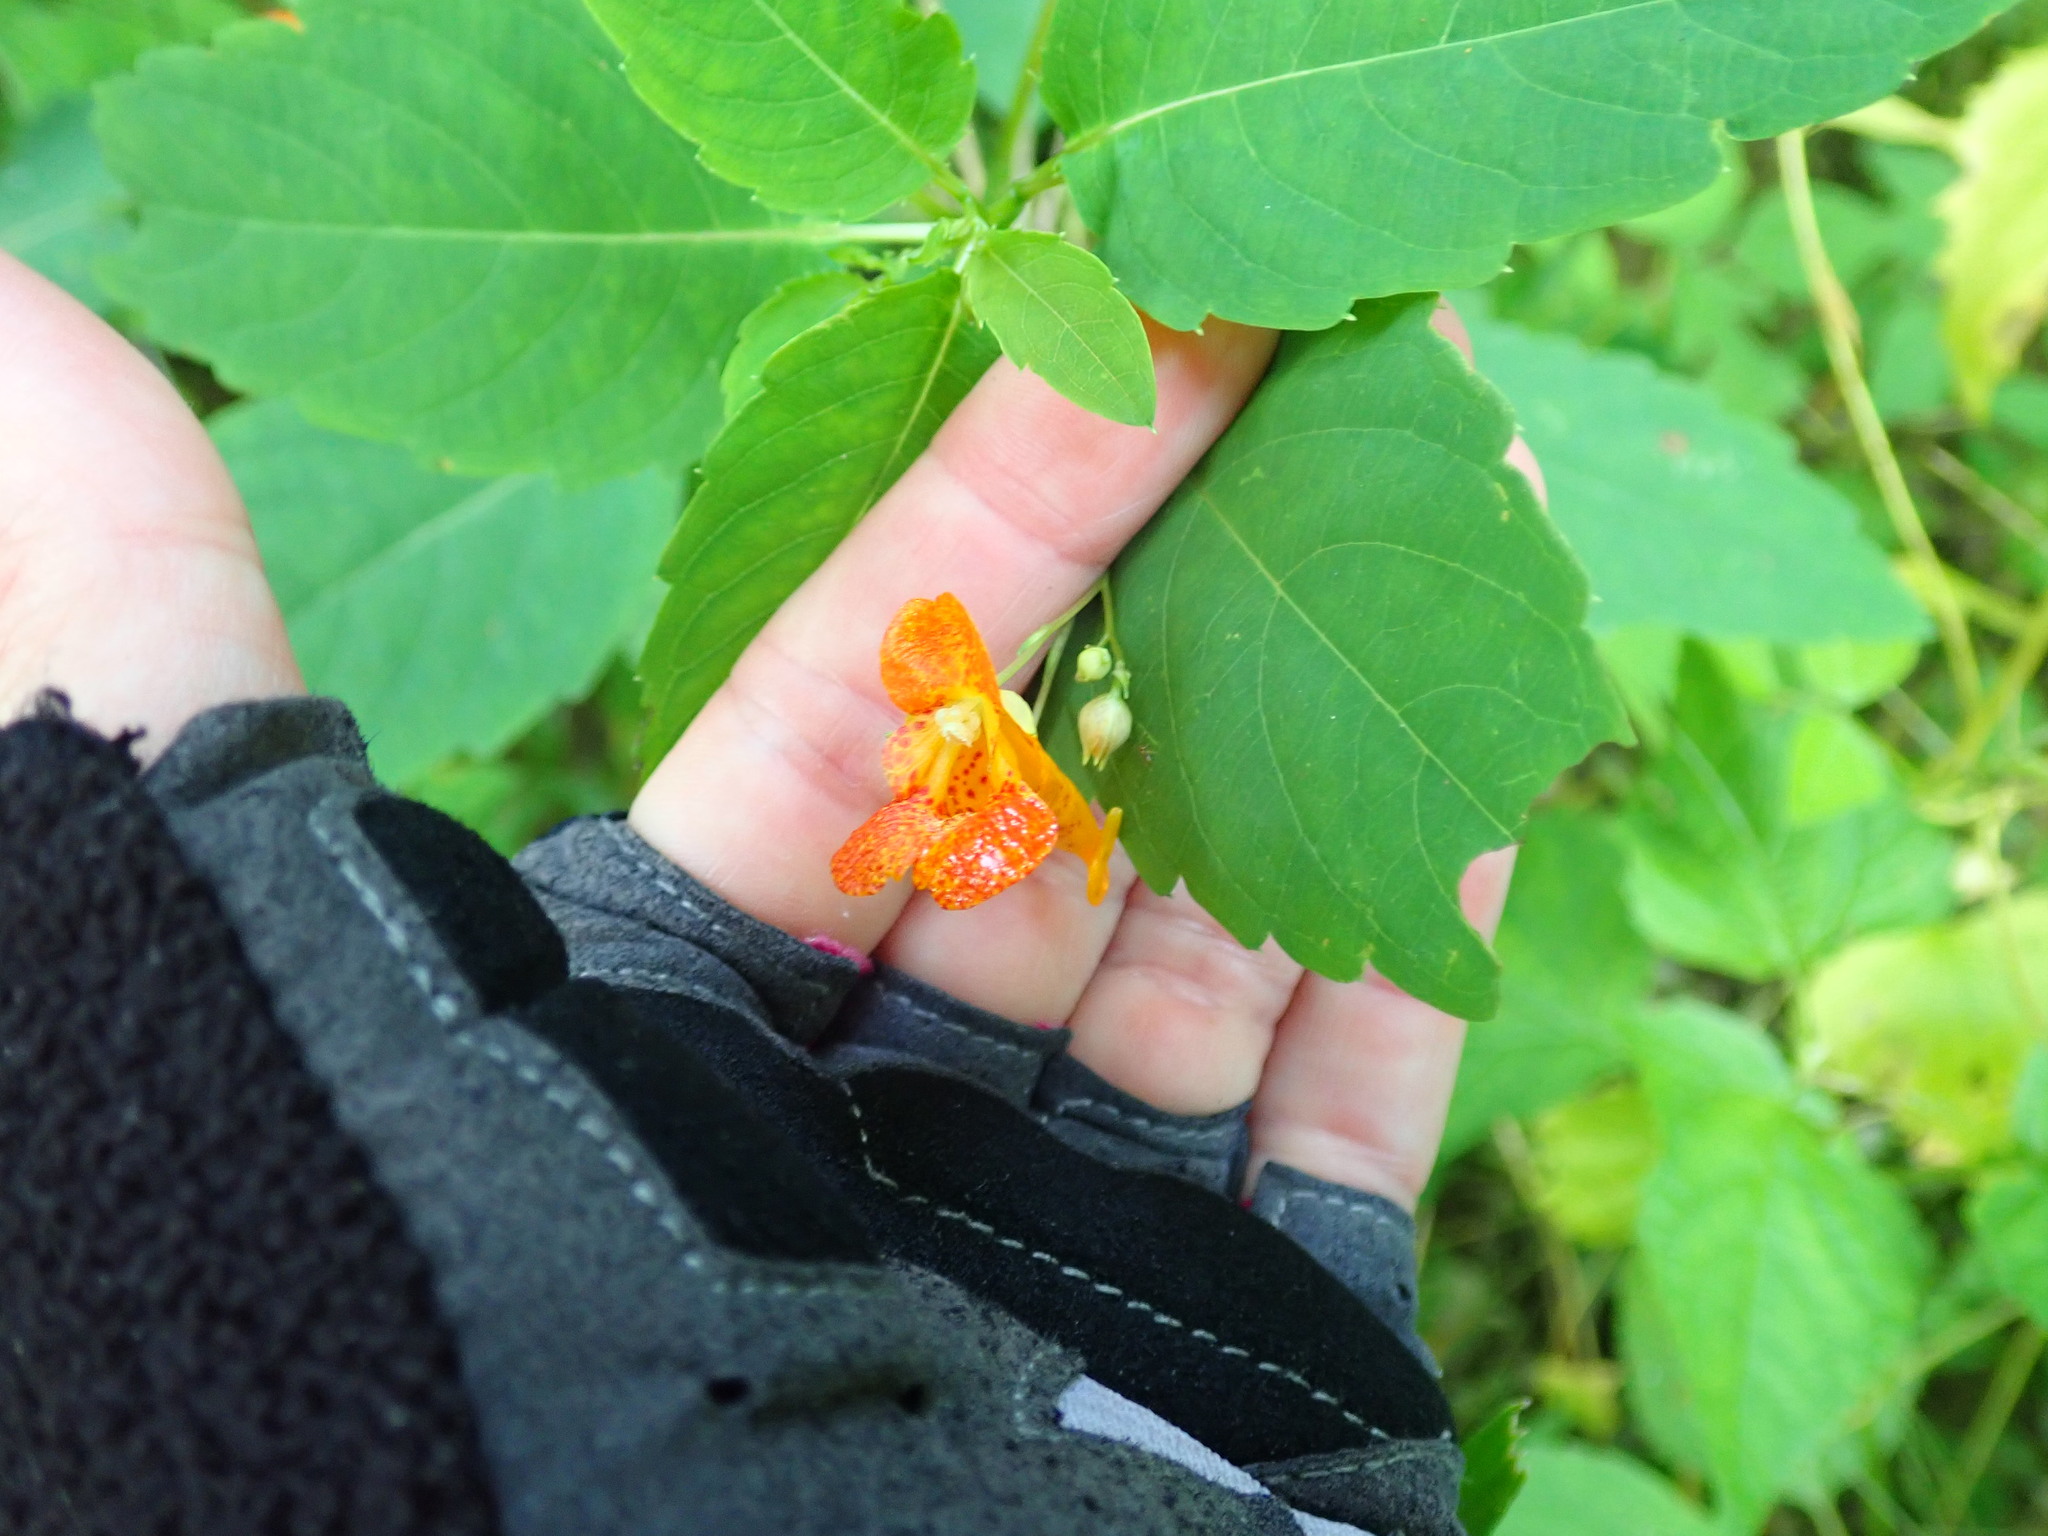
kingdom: Plantae
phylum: Tracheophyta
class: Magnoliopsida
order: Ericales
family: Balsaminaceae
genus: Impatiens
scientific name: Impatiens capensis
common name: Orange balsam
